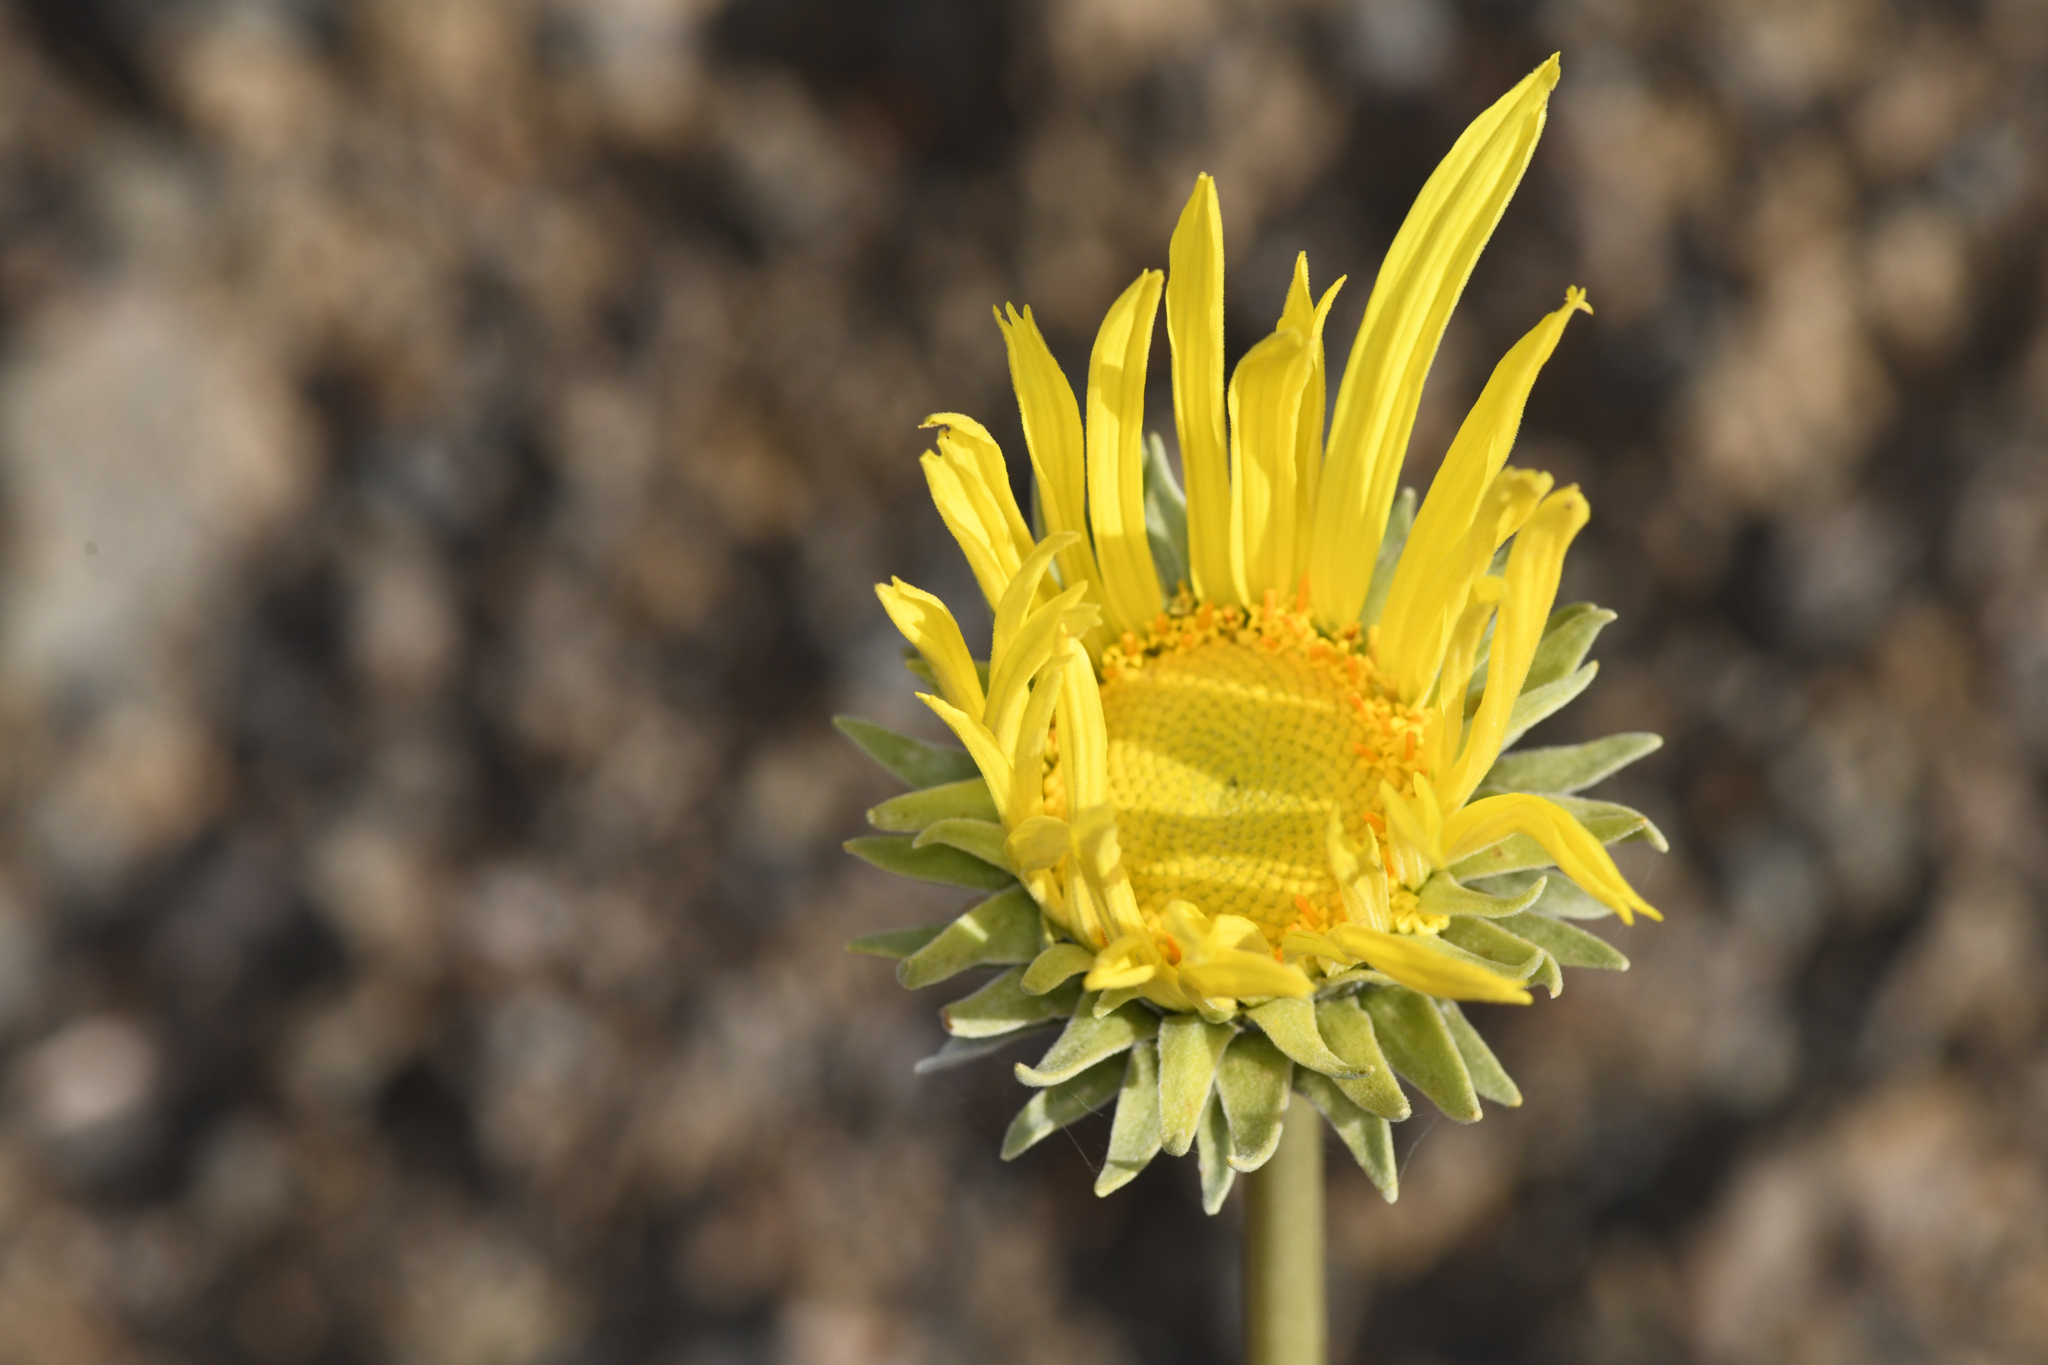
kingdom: Plantae
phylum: Tracheophyta
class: Magnoliopsida
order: Asterales
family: Asteraceae
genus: Enceliopsis
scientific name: Enceliopsis covillei
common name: Panamint daisy
